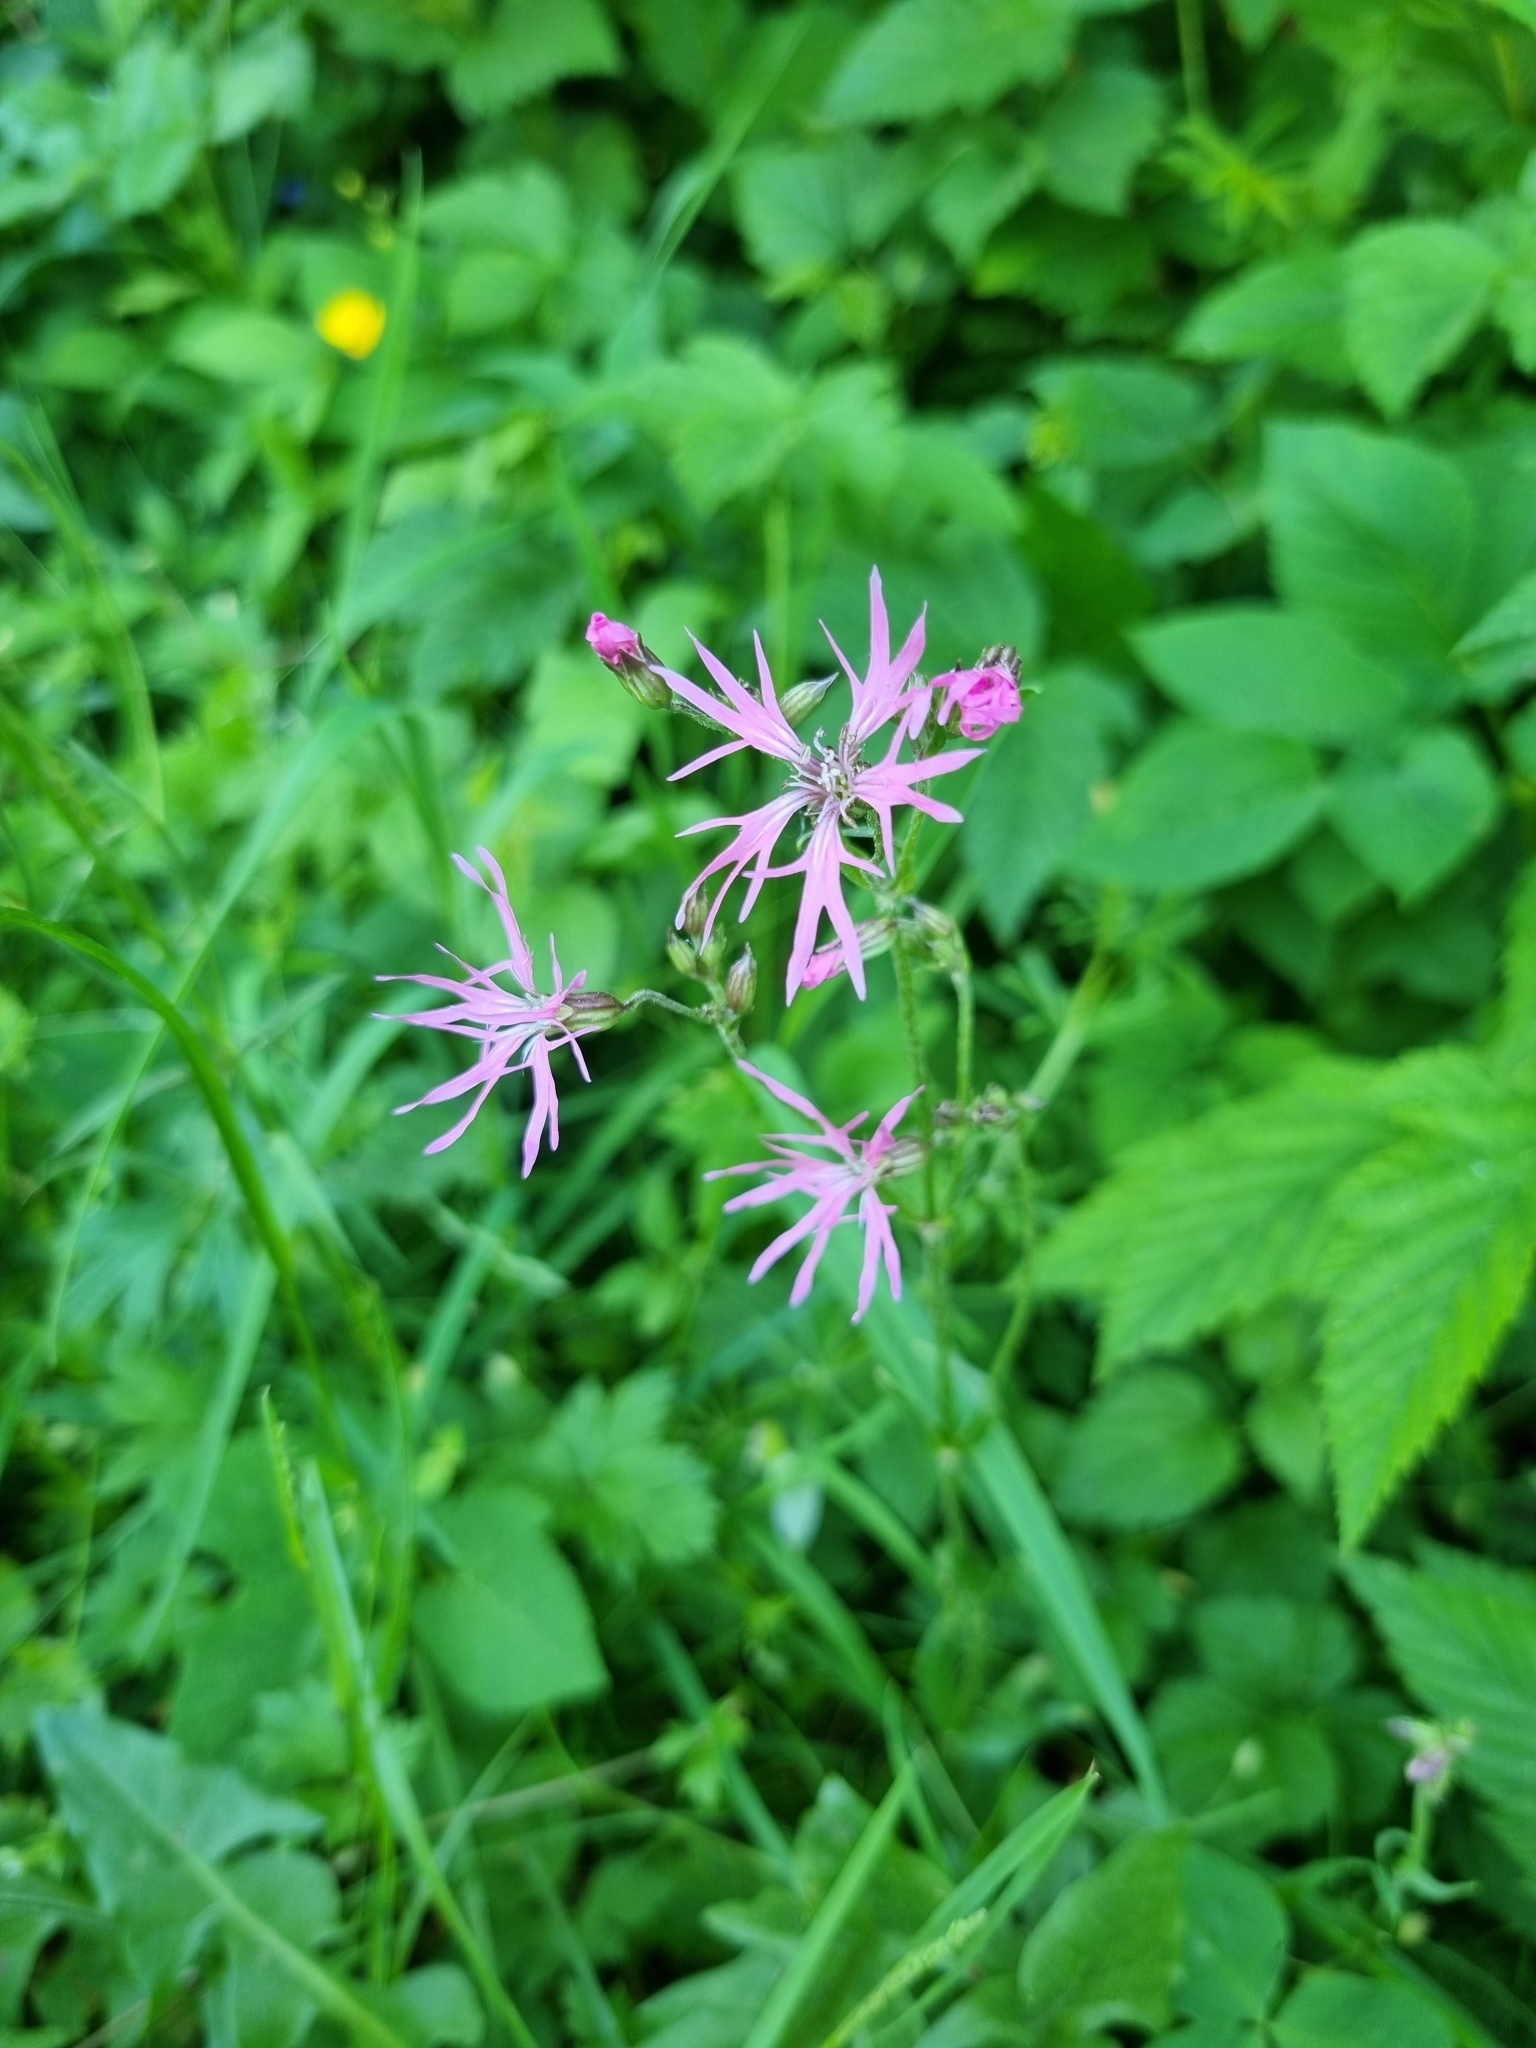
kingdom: Plantae
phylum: Tracheophyta
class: Magnoliopsida
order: Caryophyllales
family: Caryophyllaceae
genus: Silene
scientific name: Silene flos-cuculi
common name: Ragged-robin
